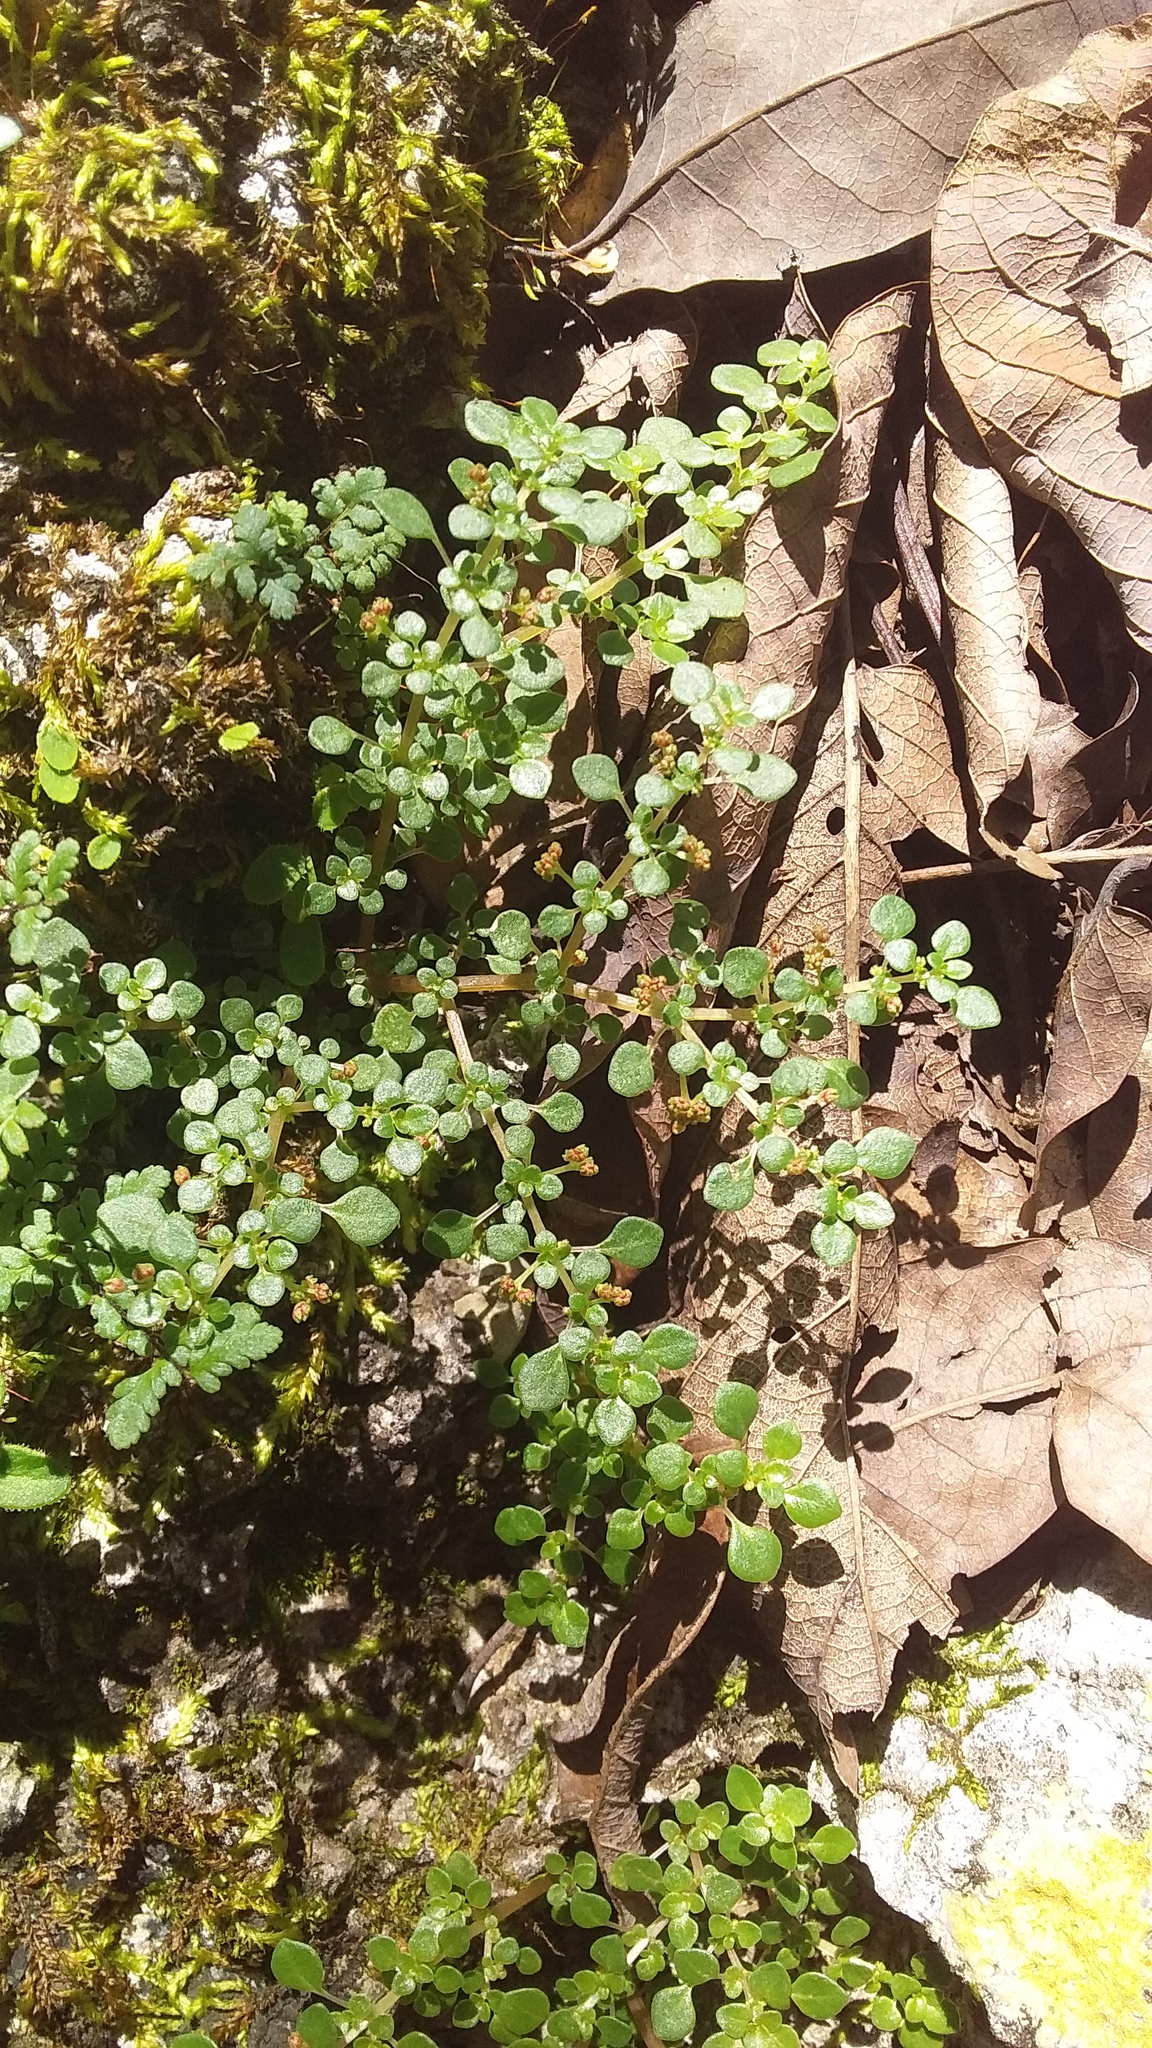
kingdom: Plantae
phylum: Tracheophyta
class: Magnoliopsida
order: Rosales
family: Urticaceae
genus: Pilea
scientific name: Pilea microphylla
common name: Artillery-plant
